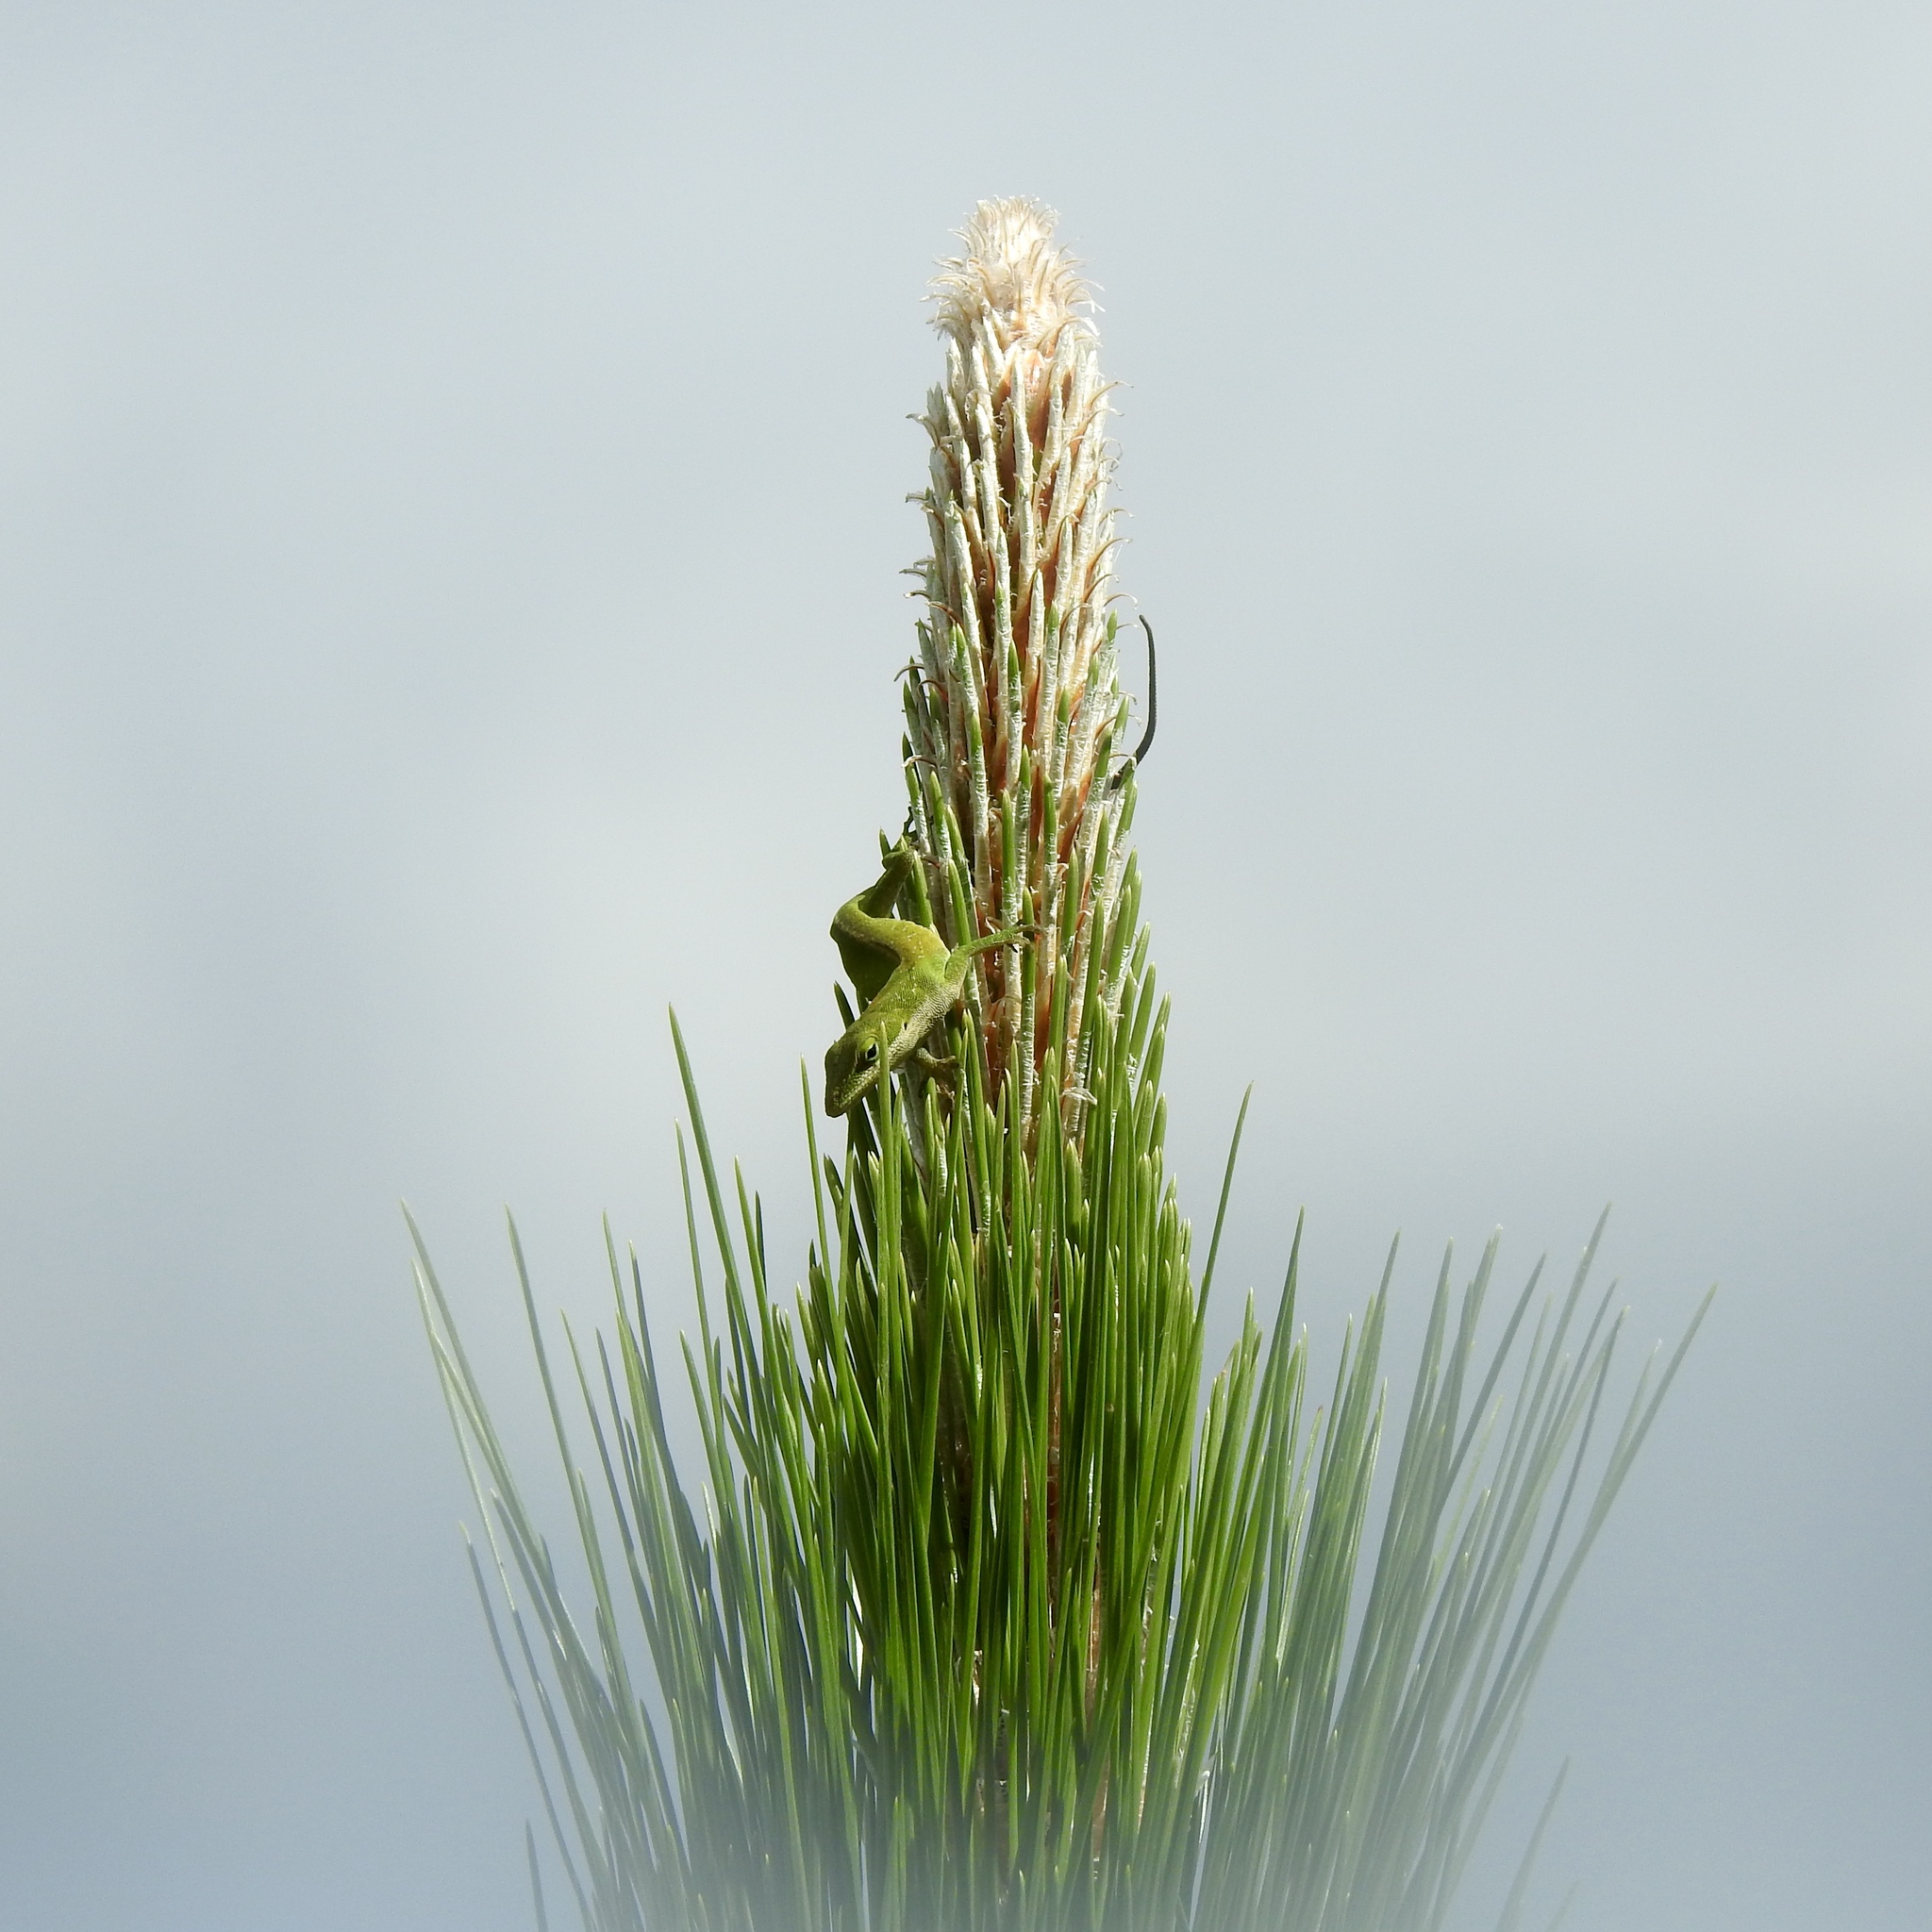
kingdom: Animalia
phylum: Chordata
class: Squamata
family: Dactyloidae
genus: Anolis
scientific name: Anolis carolinensis
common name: Green anole
